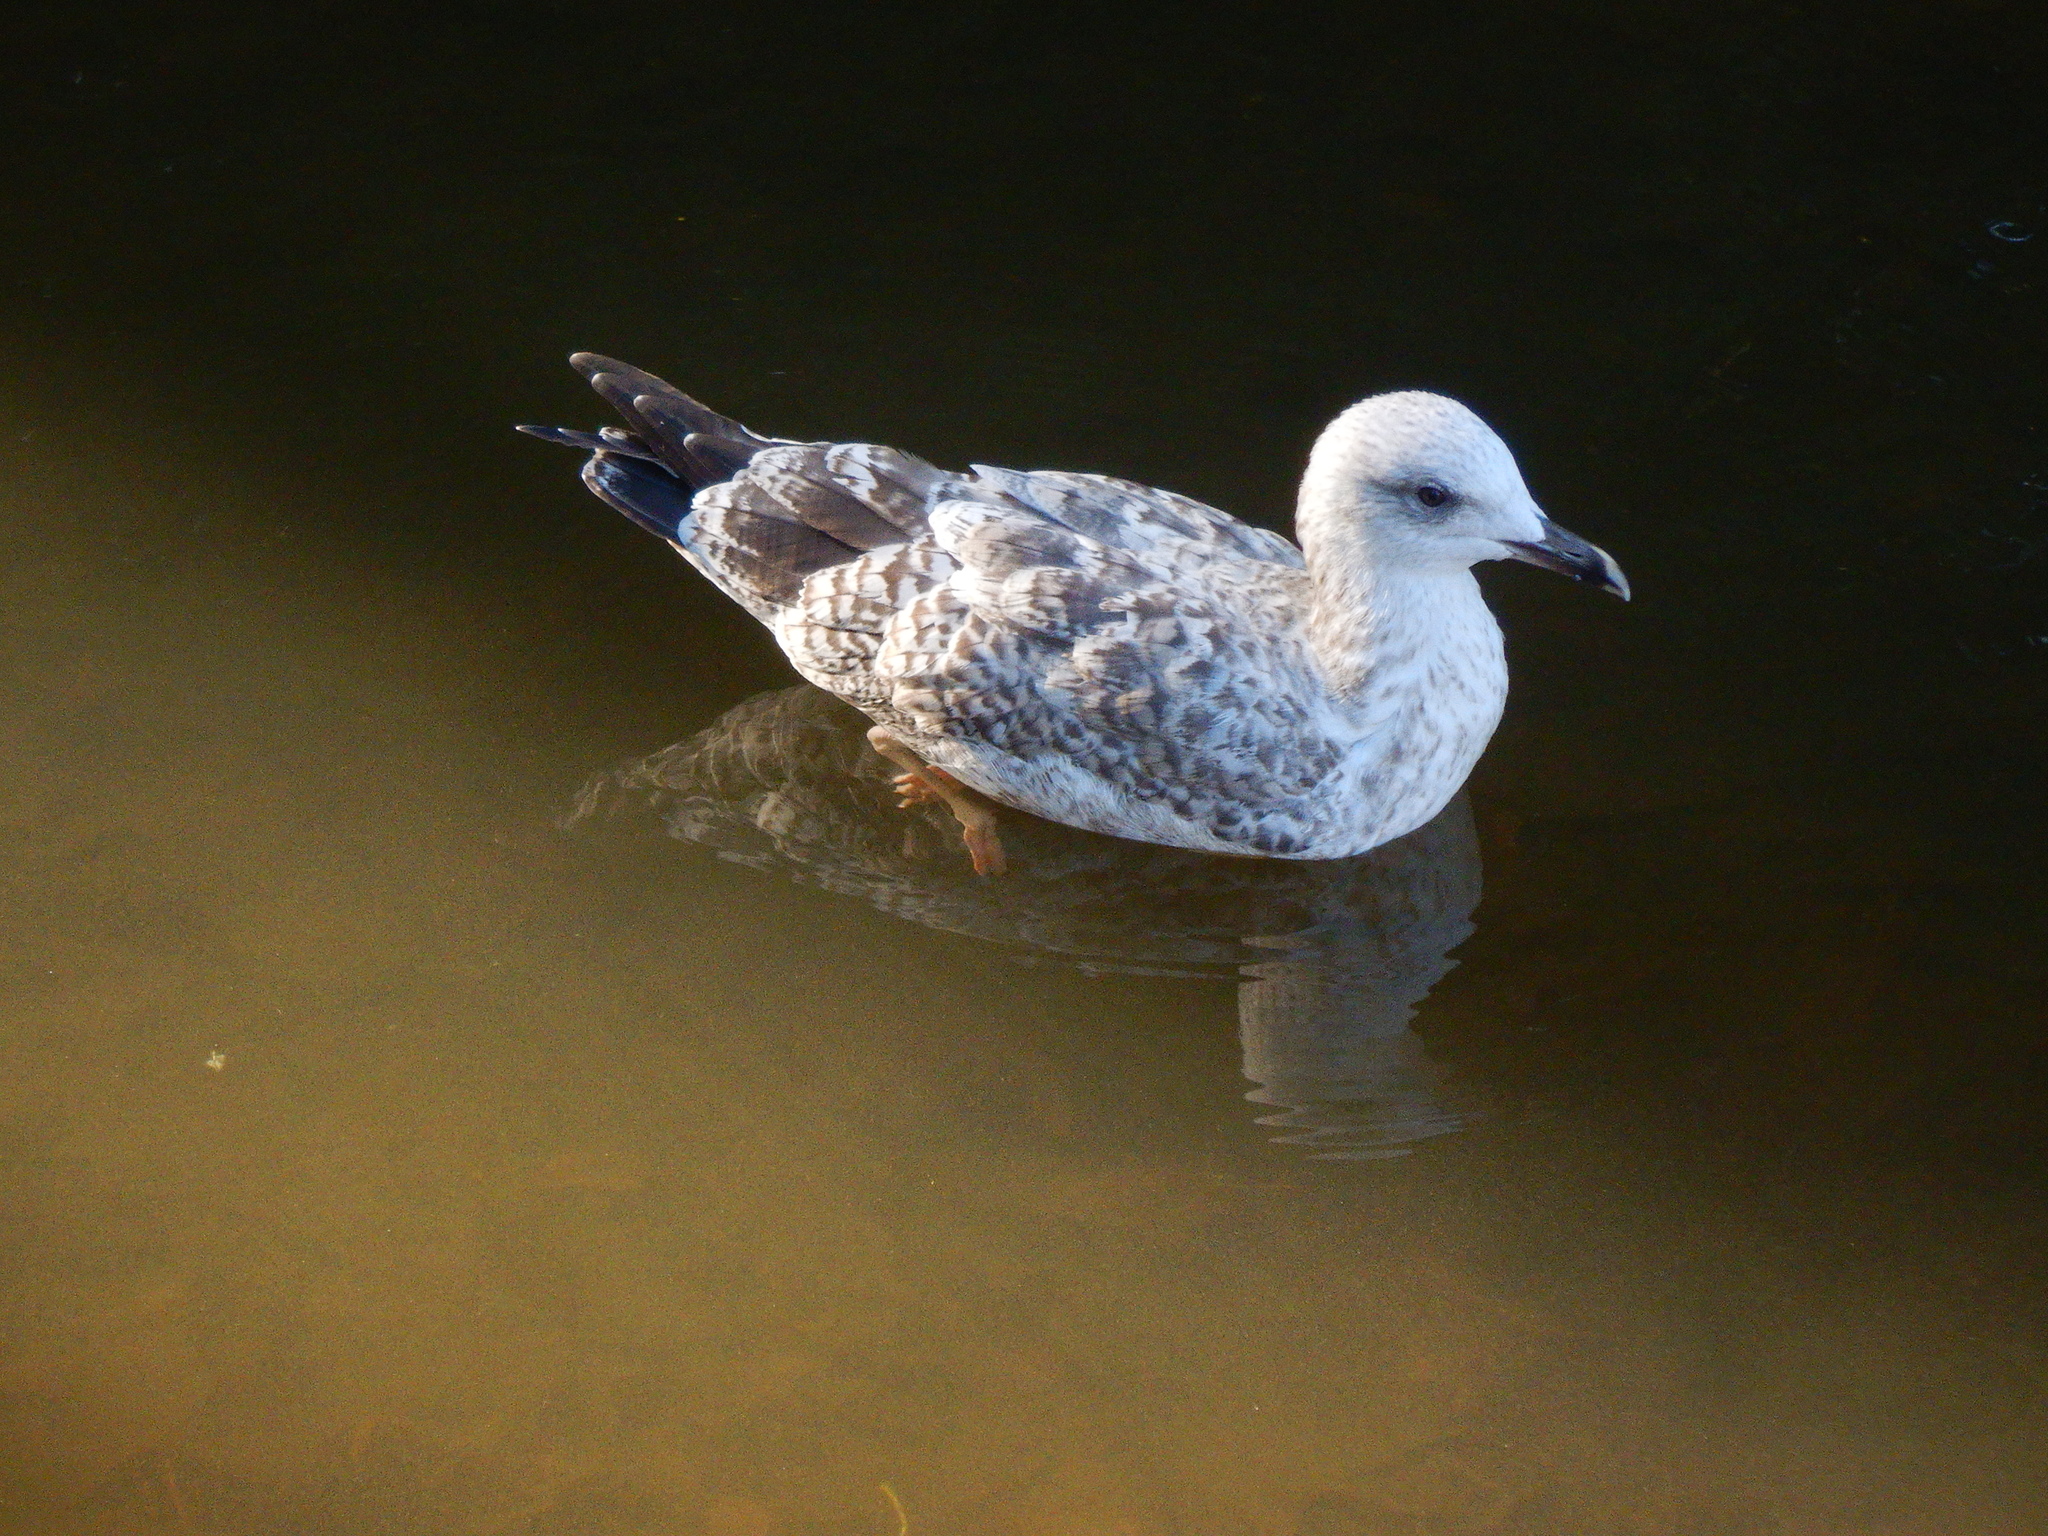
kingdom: Animalia
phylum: Chordata
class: Aves
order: Charadriiformes
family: Laridae
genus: Larus
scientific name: Larus argentatus
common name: Herring gull
